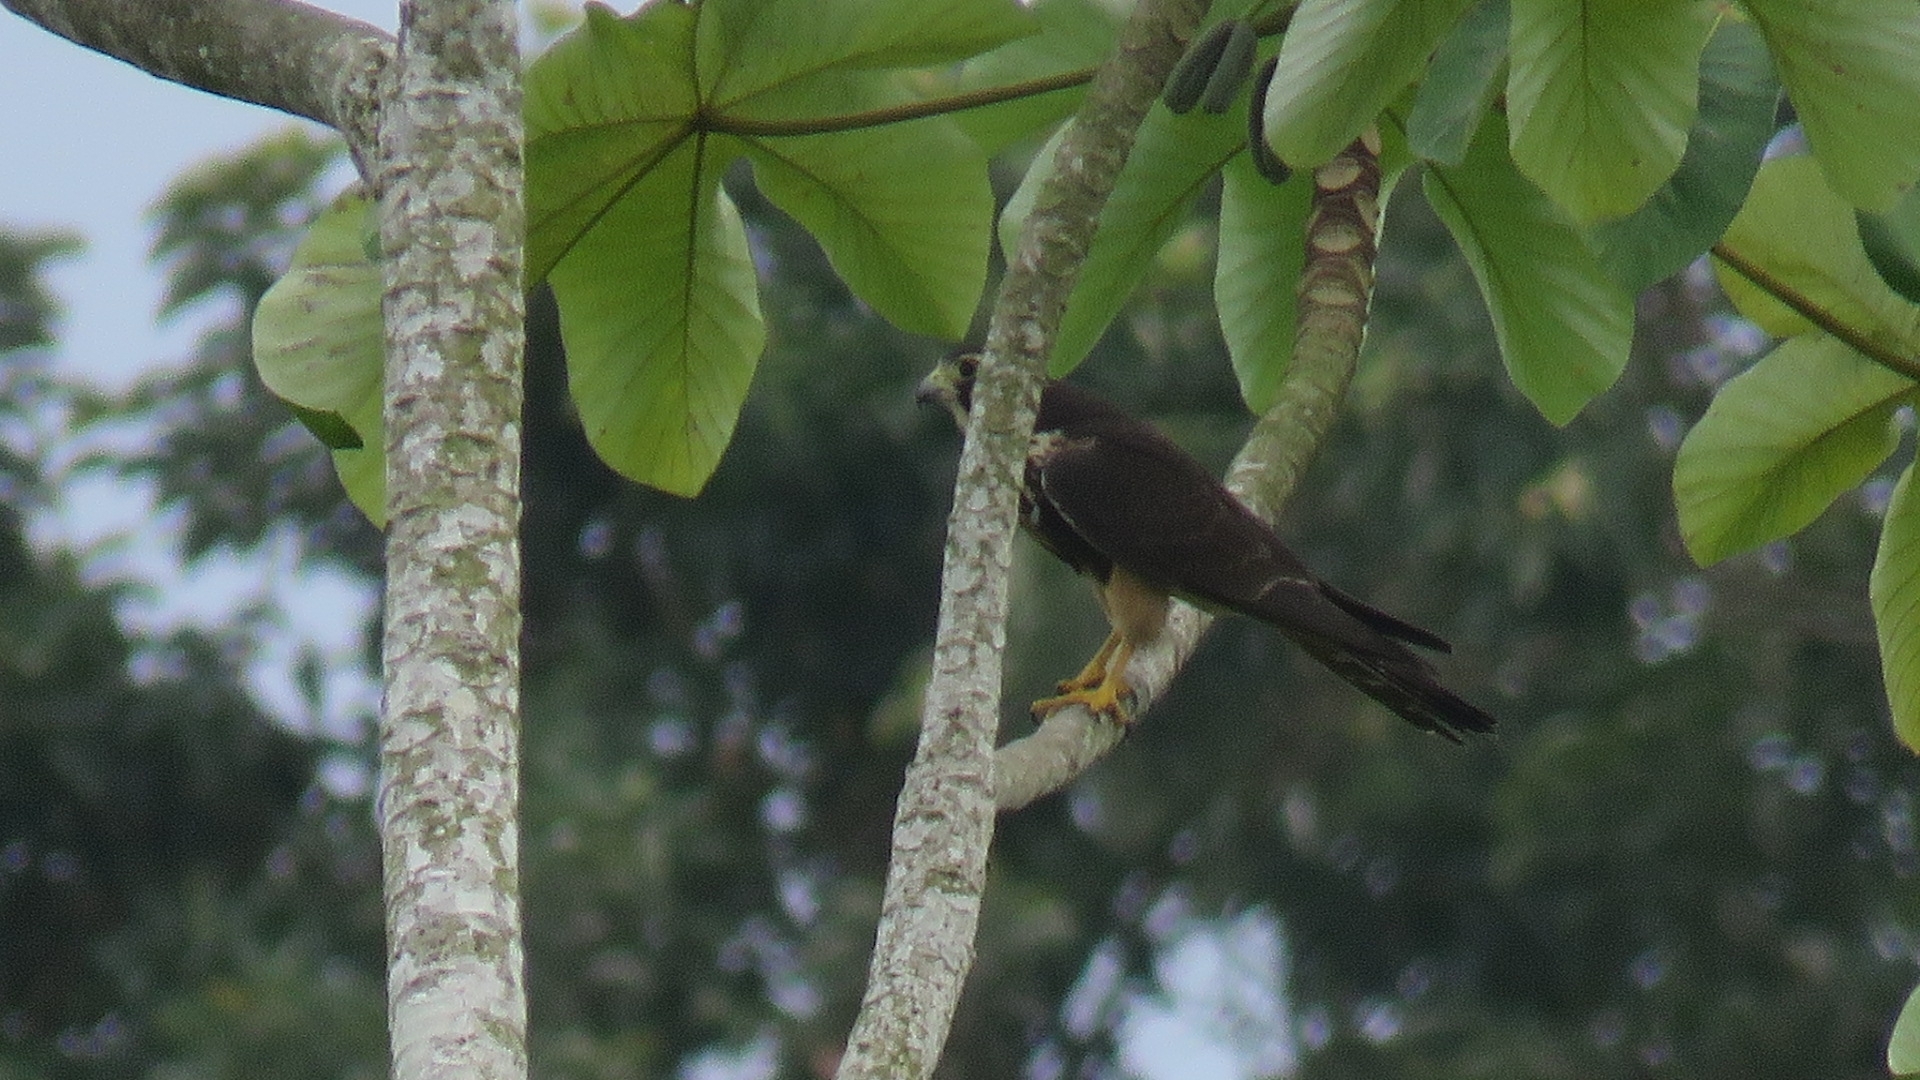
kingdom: Animalia
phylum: Chordata
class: Aves
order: Falconiformes
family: Falconidae
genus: Falco
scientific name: Falco femoralis
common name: Aplomado falcon
